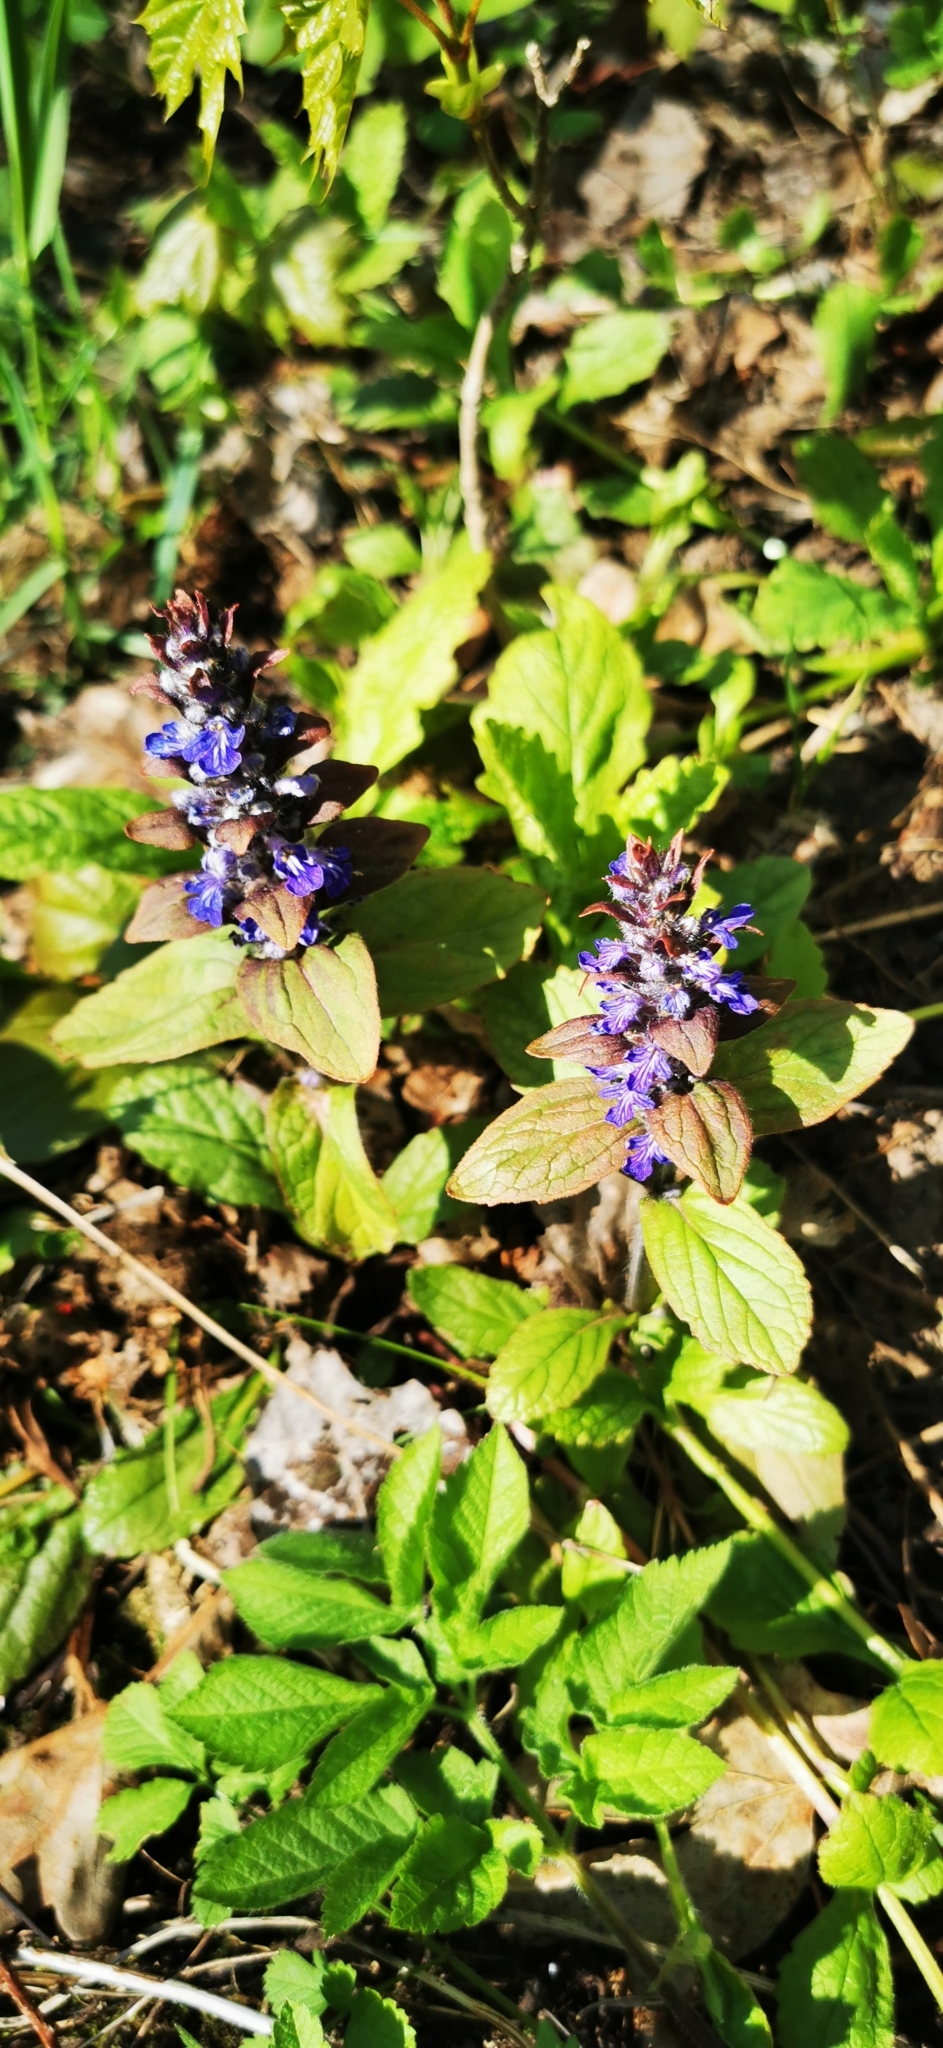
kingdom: Plantae
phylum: Tracheophyta
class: Magnoliopsida
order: Lamiales
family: Lamiaceae
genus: Ajuga
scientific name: Ajuga reptans
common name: Bugle
